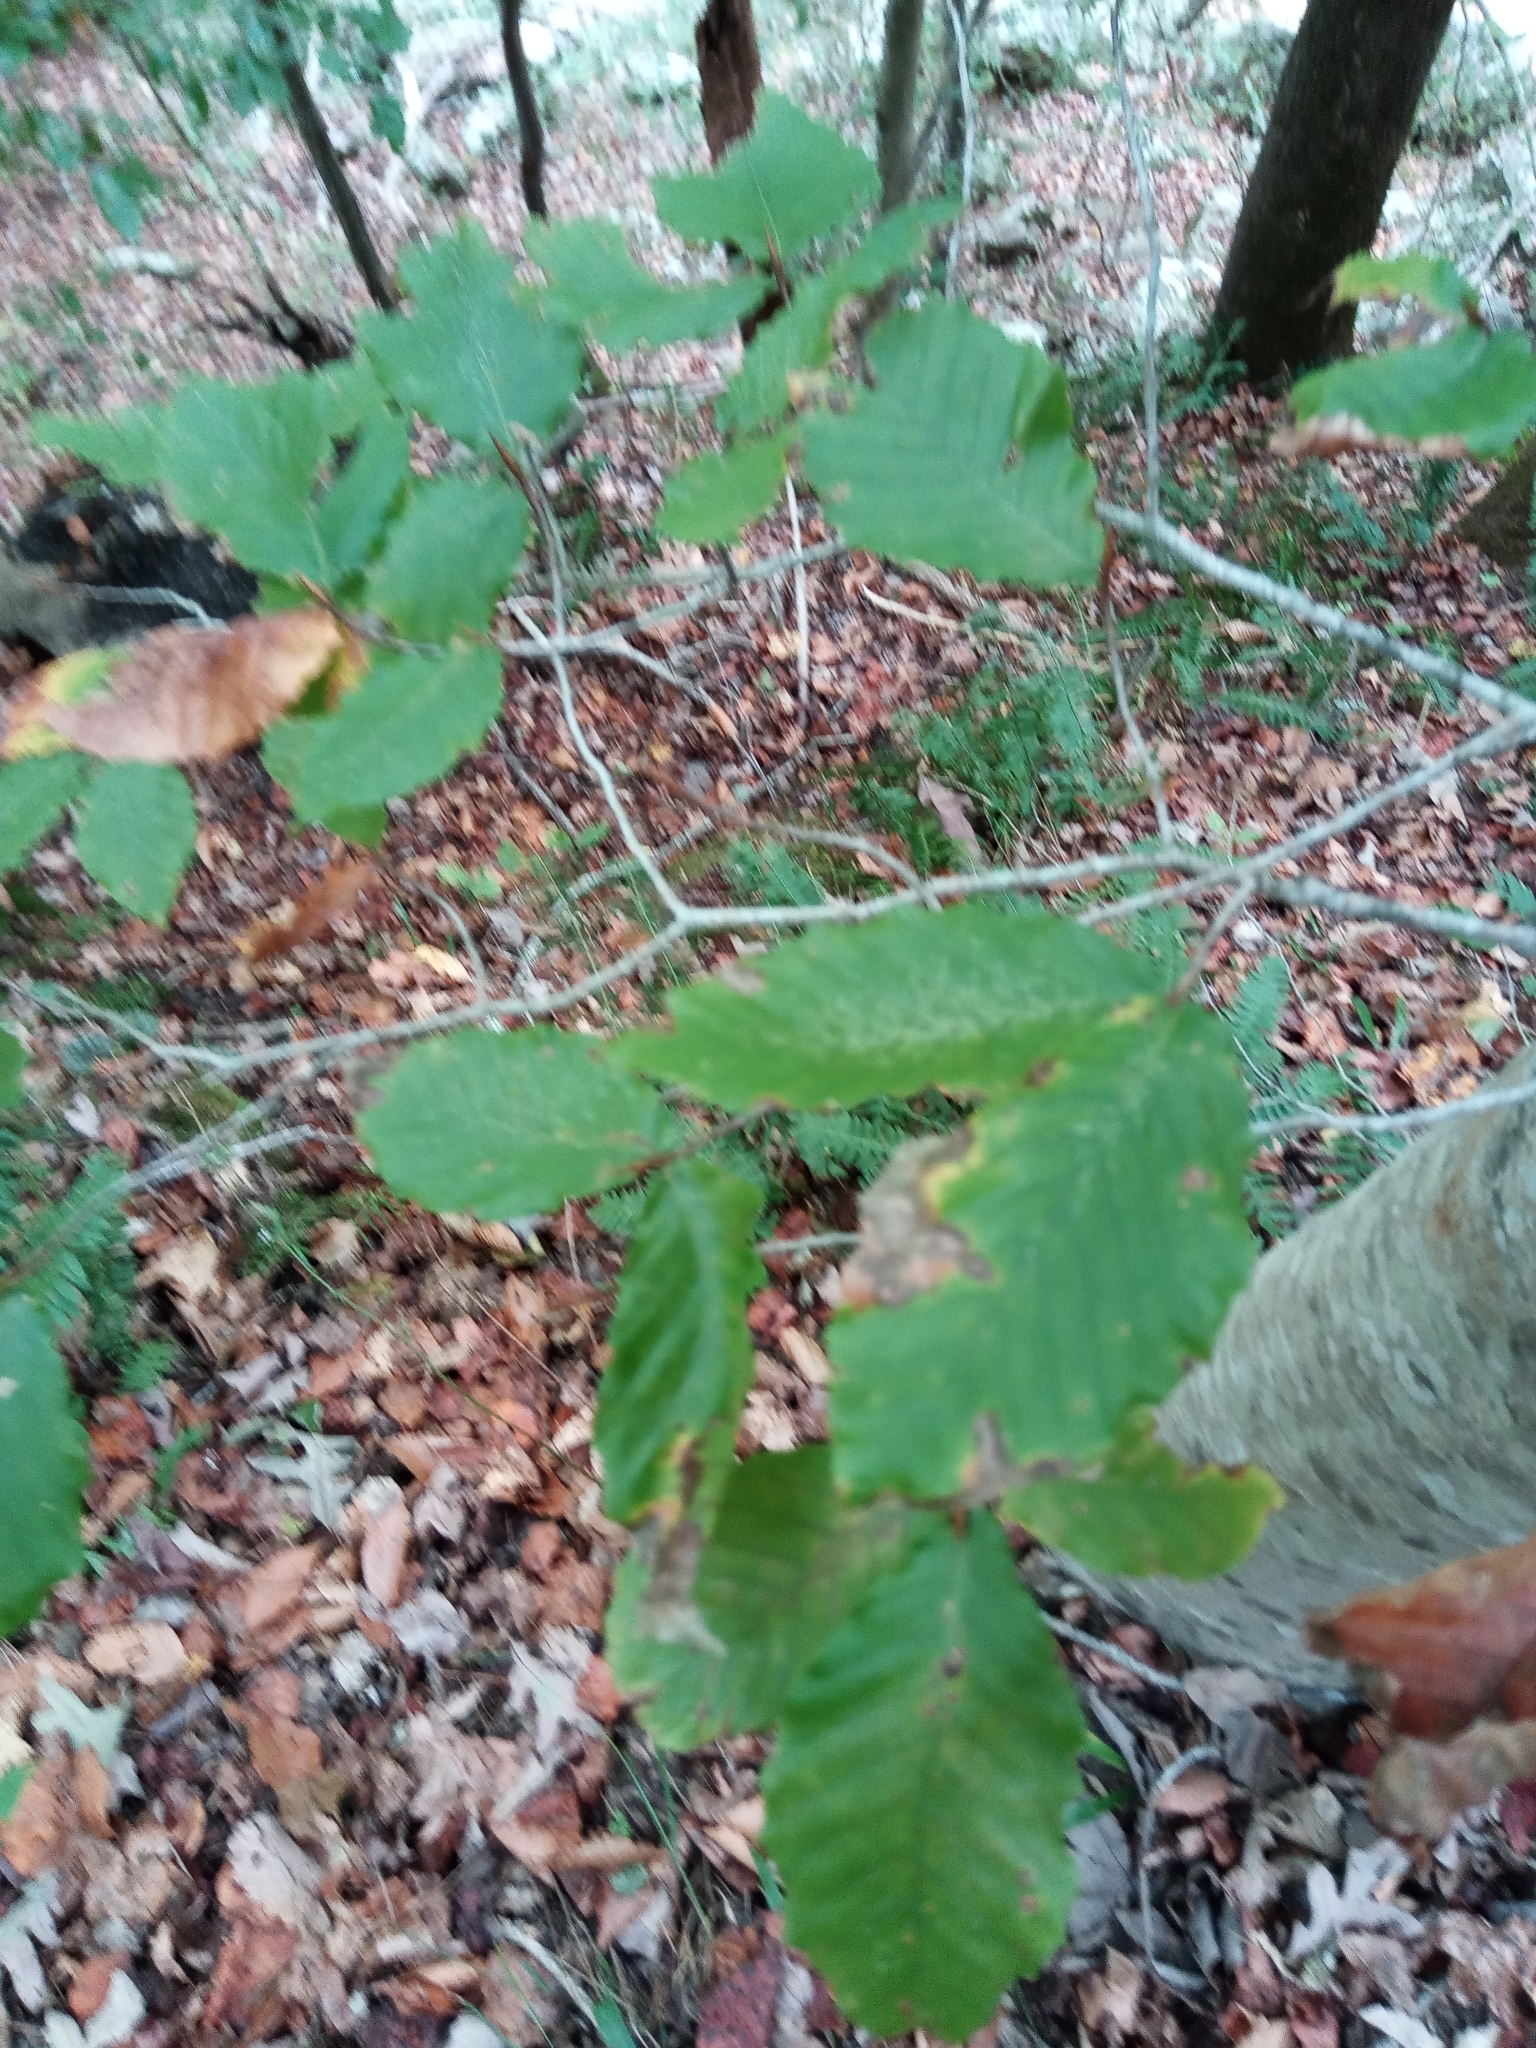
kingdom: Plantae
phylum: Tracheophyta
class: Magnoliopsida
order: Fagales
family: Fagaceae
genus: Fagus
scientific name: Fagus grandifolia
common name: American beech
